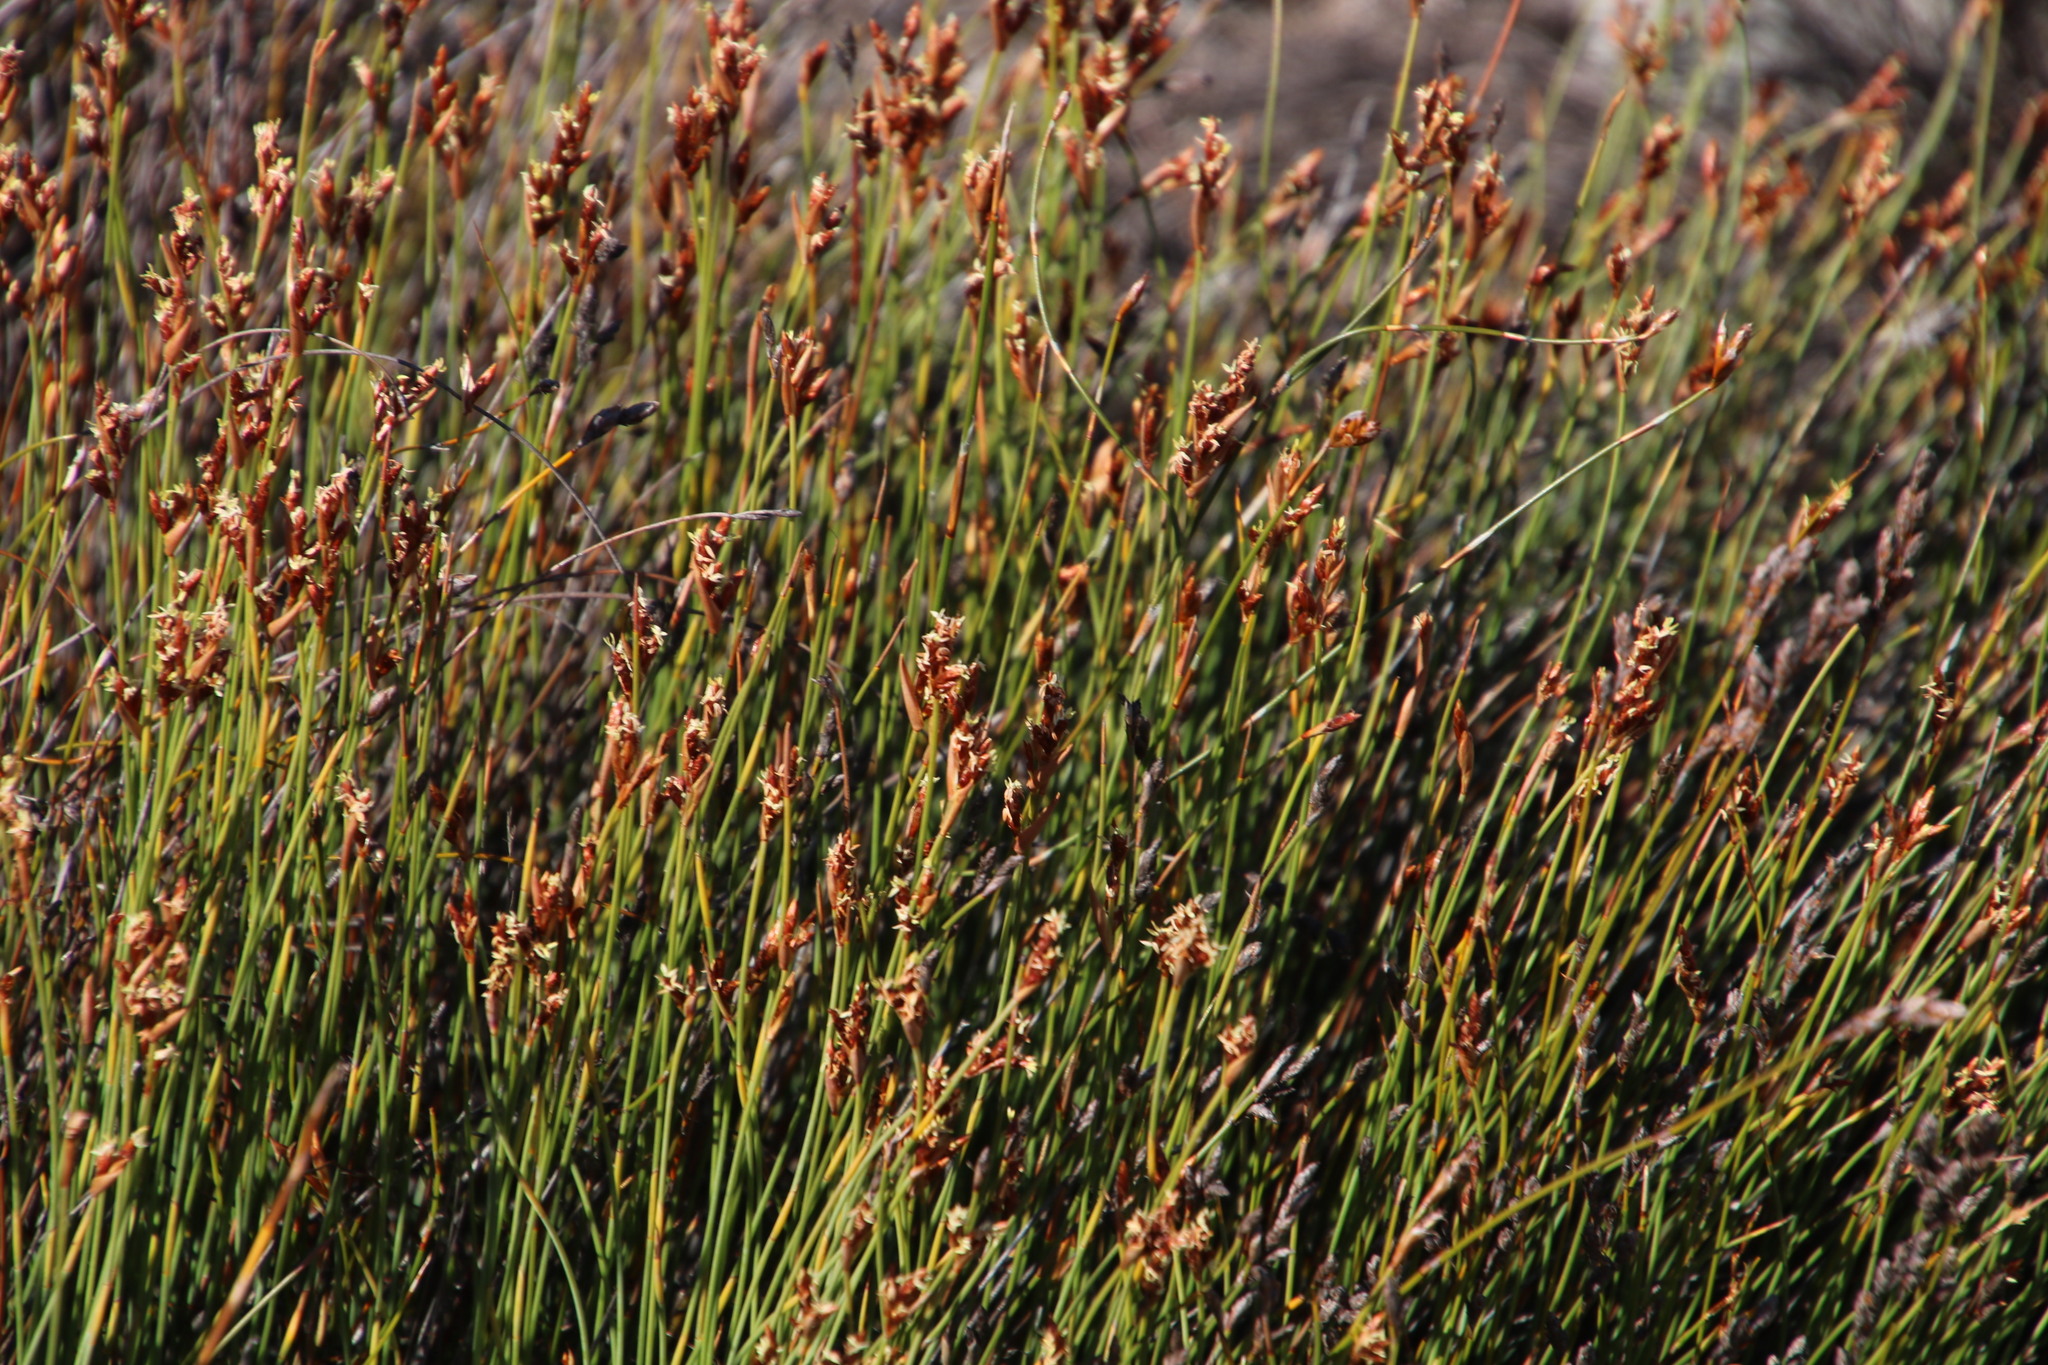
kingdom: Plantae
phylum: Tracheophyta
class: Liliopsida
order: Poales
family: Restionaceae
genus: Hypodiscus
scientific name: Hypodiscus striatus
